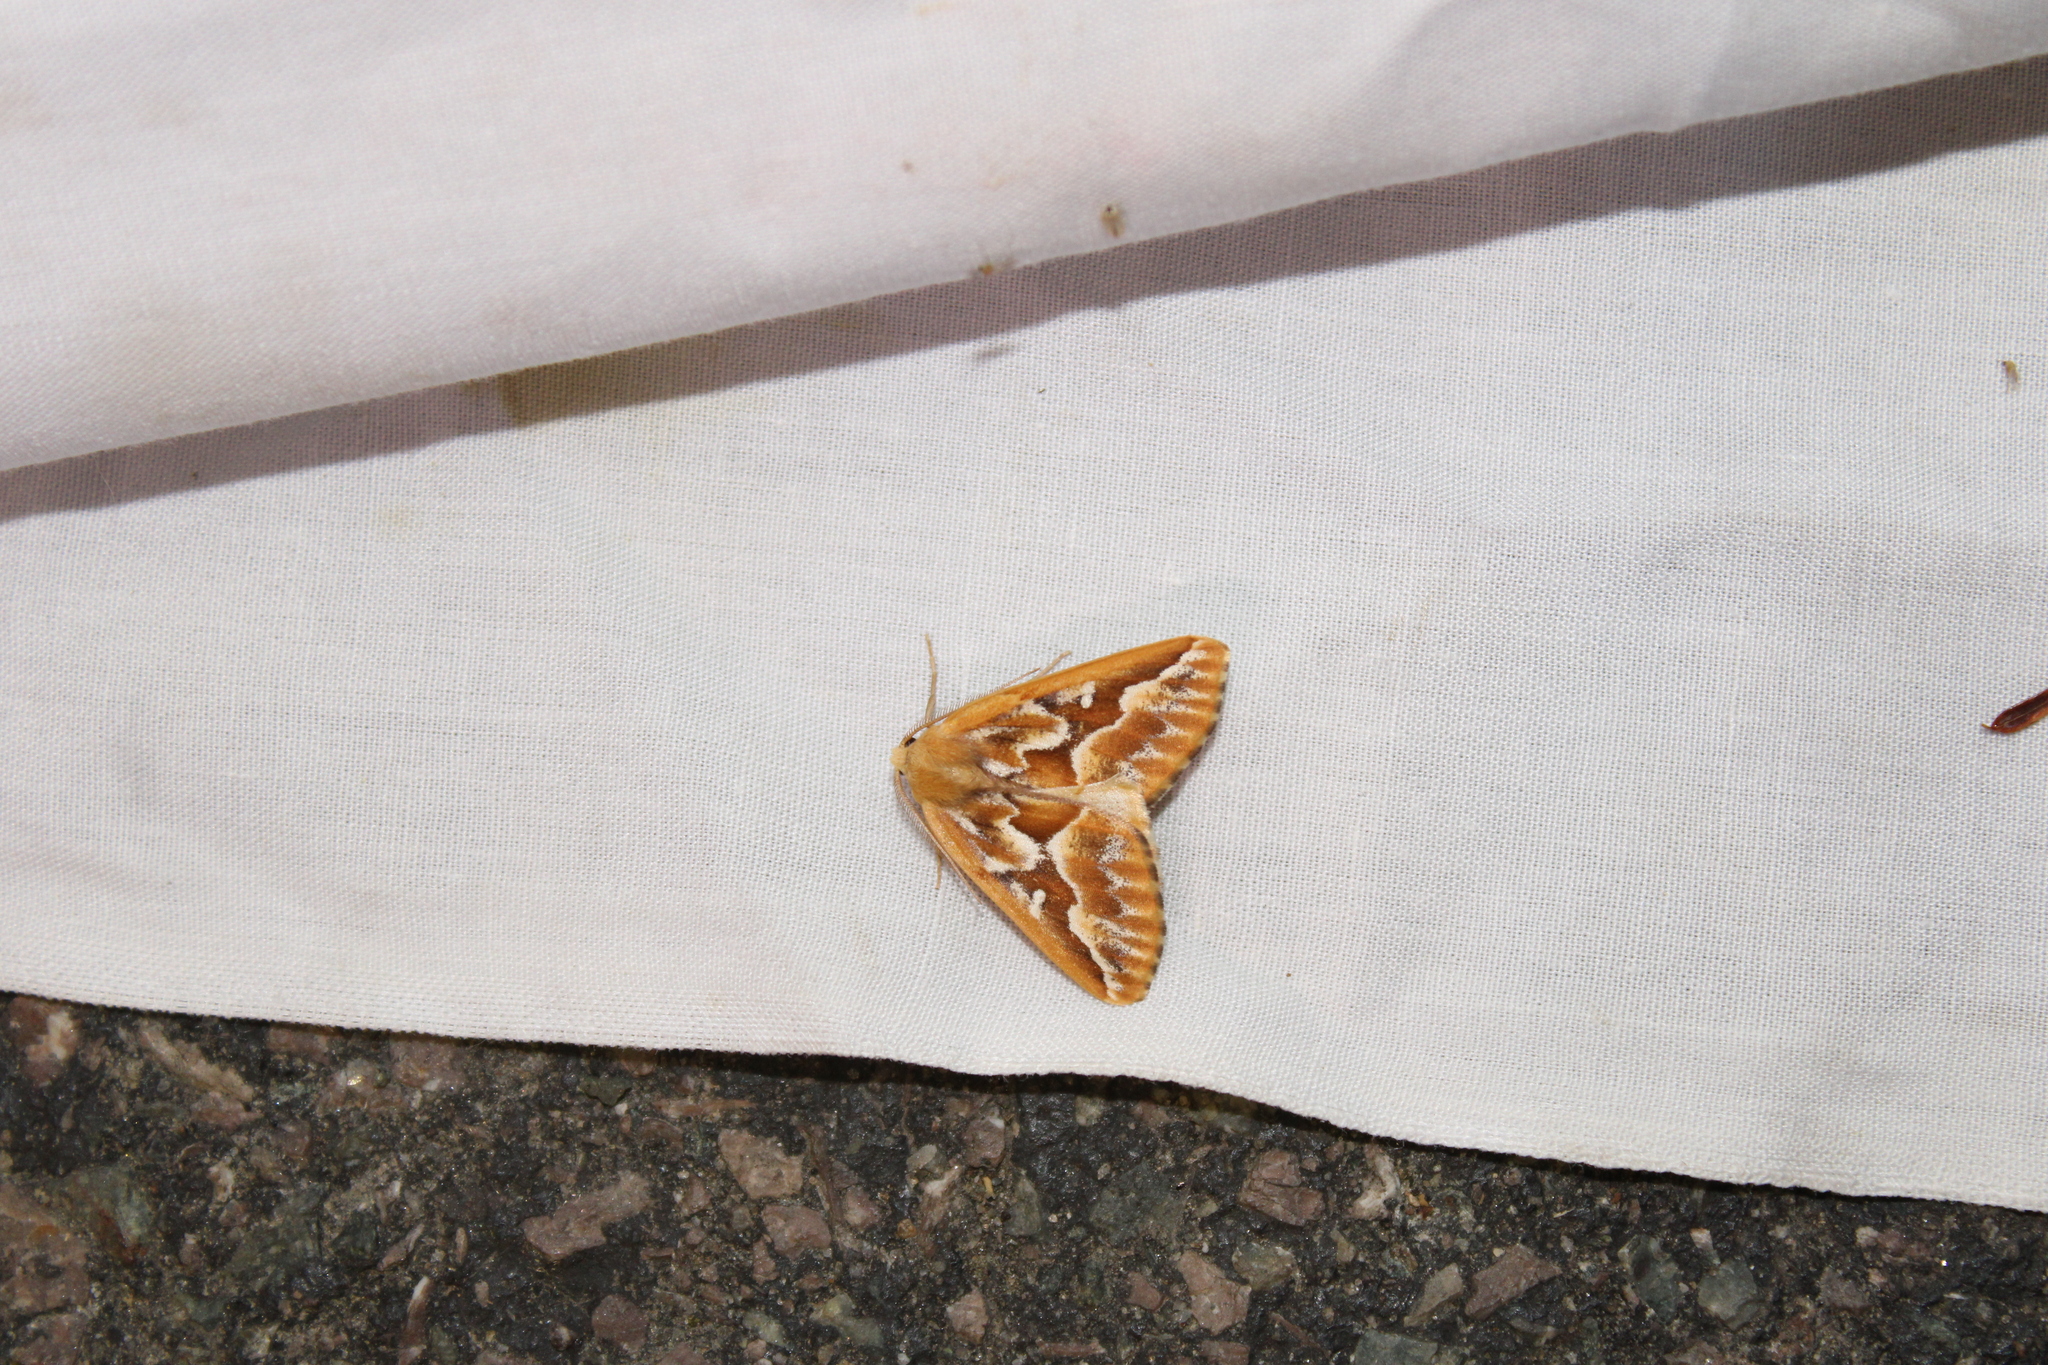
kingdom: Animalia
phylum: Arthropoda
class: Insecta
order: Lepidoptera
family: Geometridae
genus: Caripeta
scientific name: Caripeta piniata
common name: Northern pine looper moth
